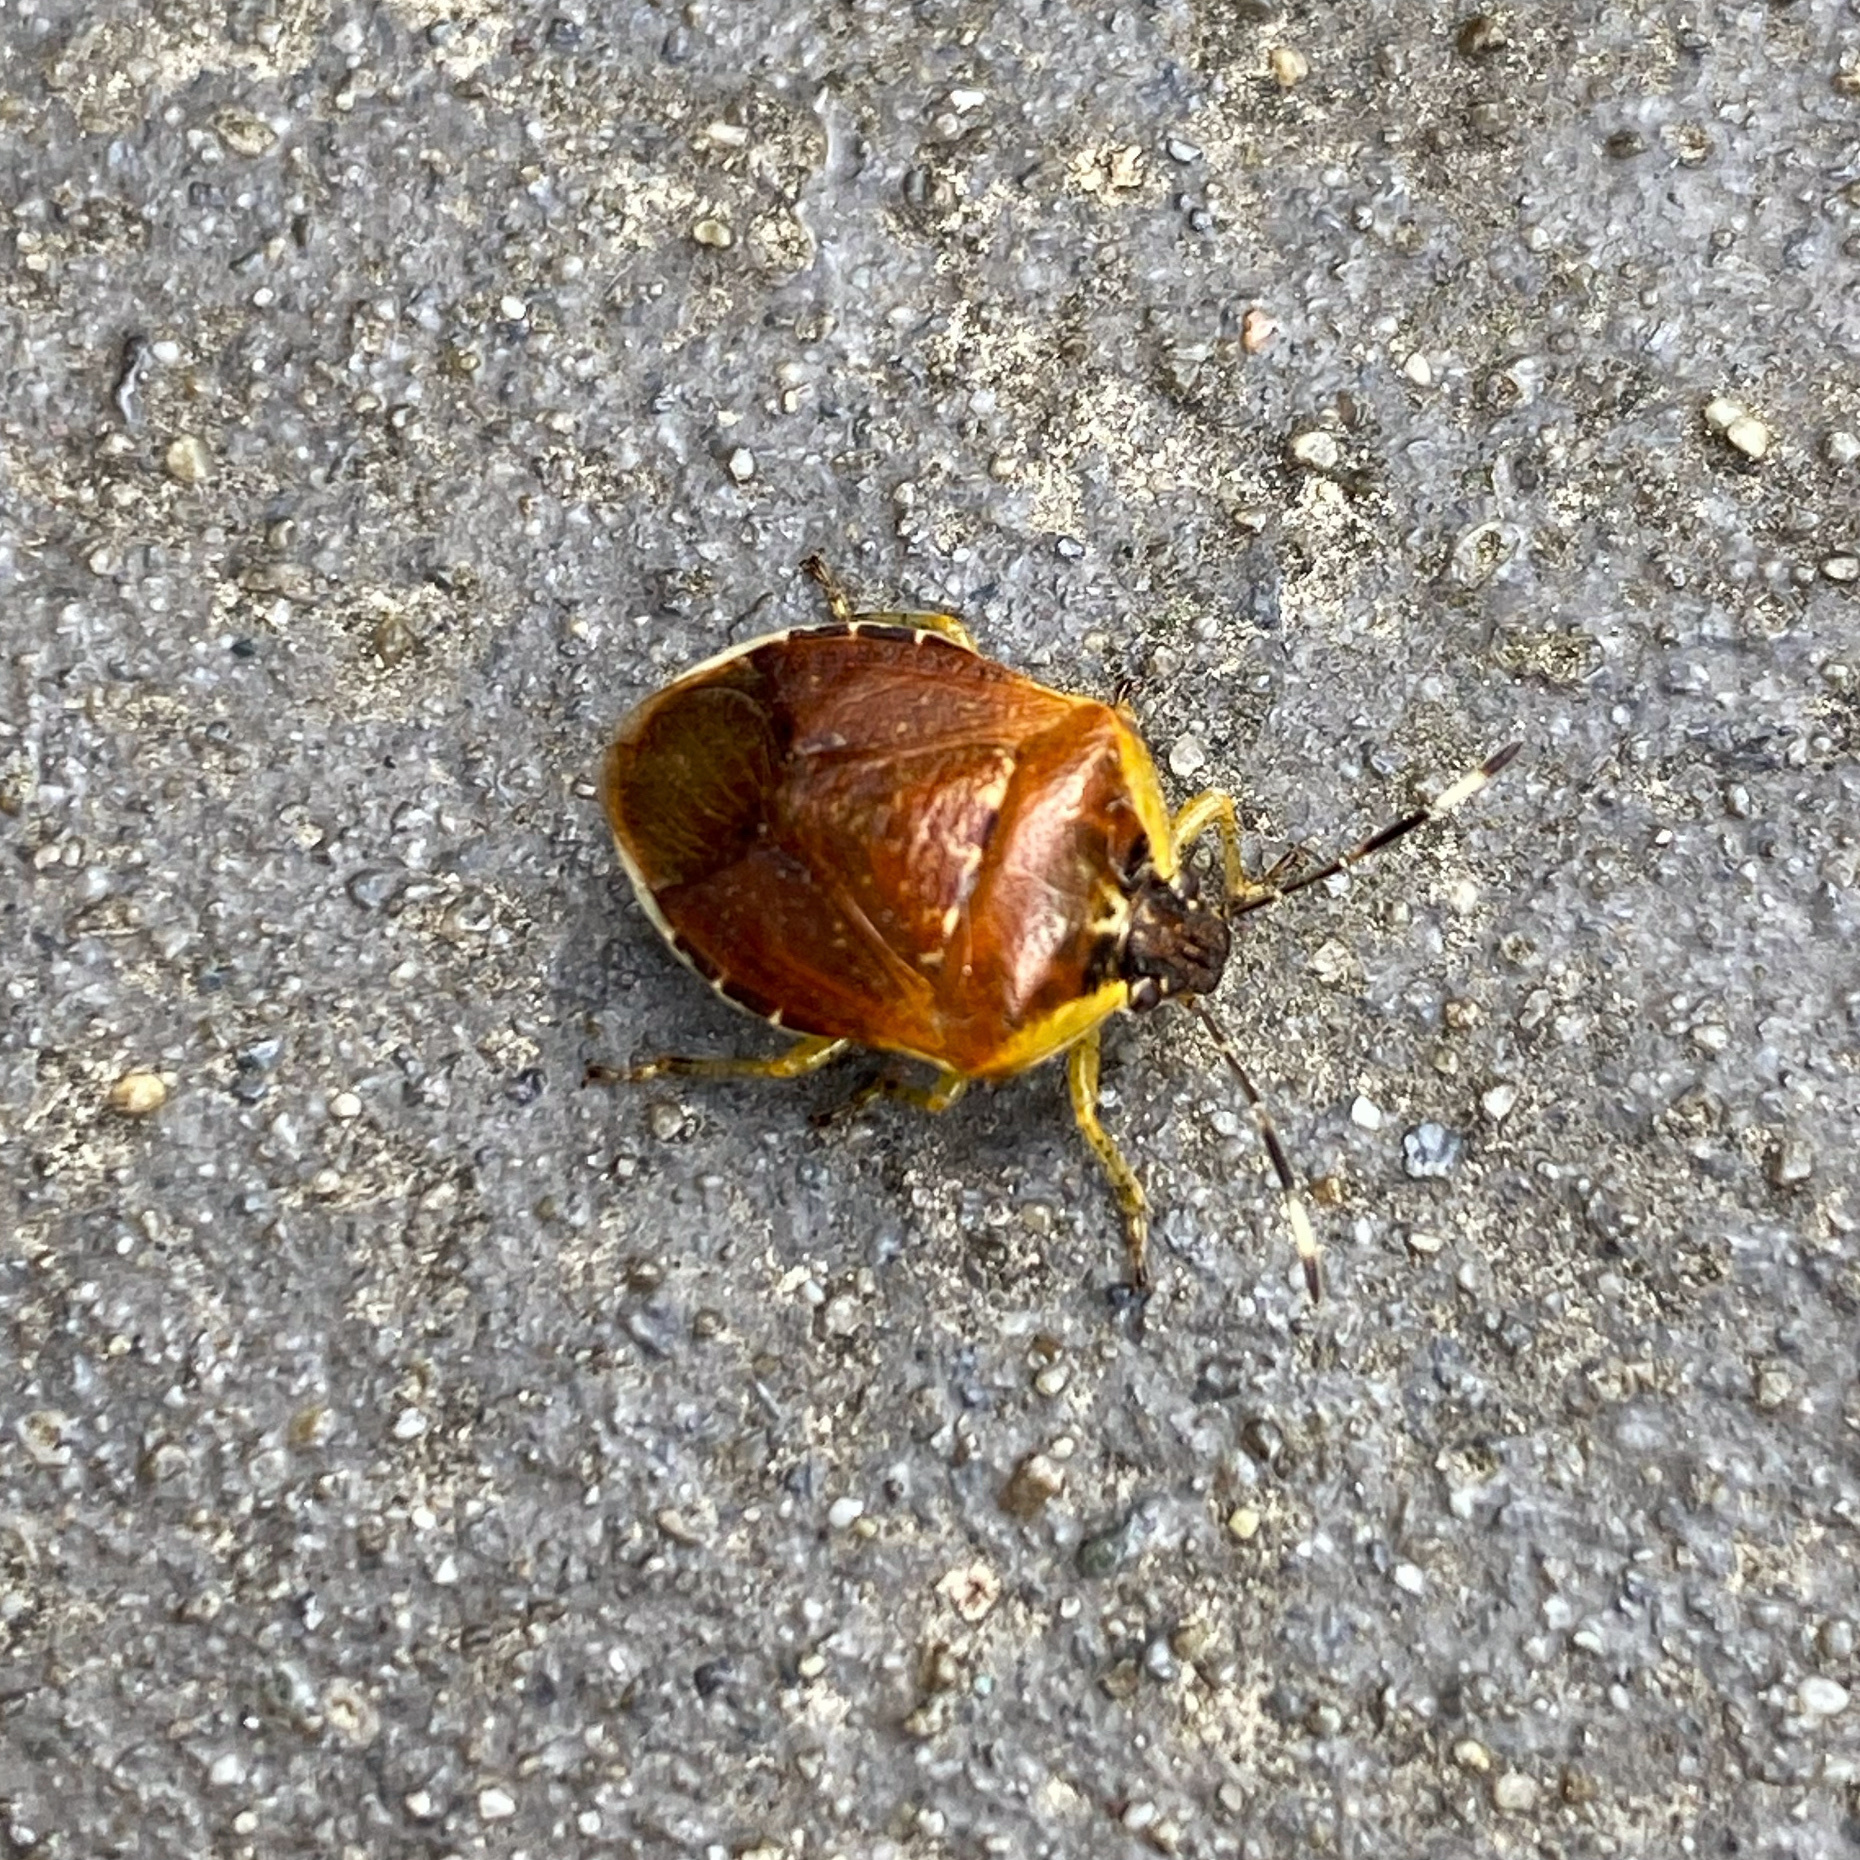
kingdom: Animalia
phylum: Arthropoda
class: Insecta
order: Hemiptera
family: Pentatomidae
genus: Monteithiella
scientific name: Monteithiella
